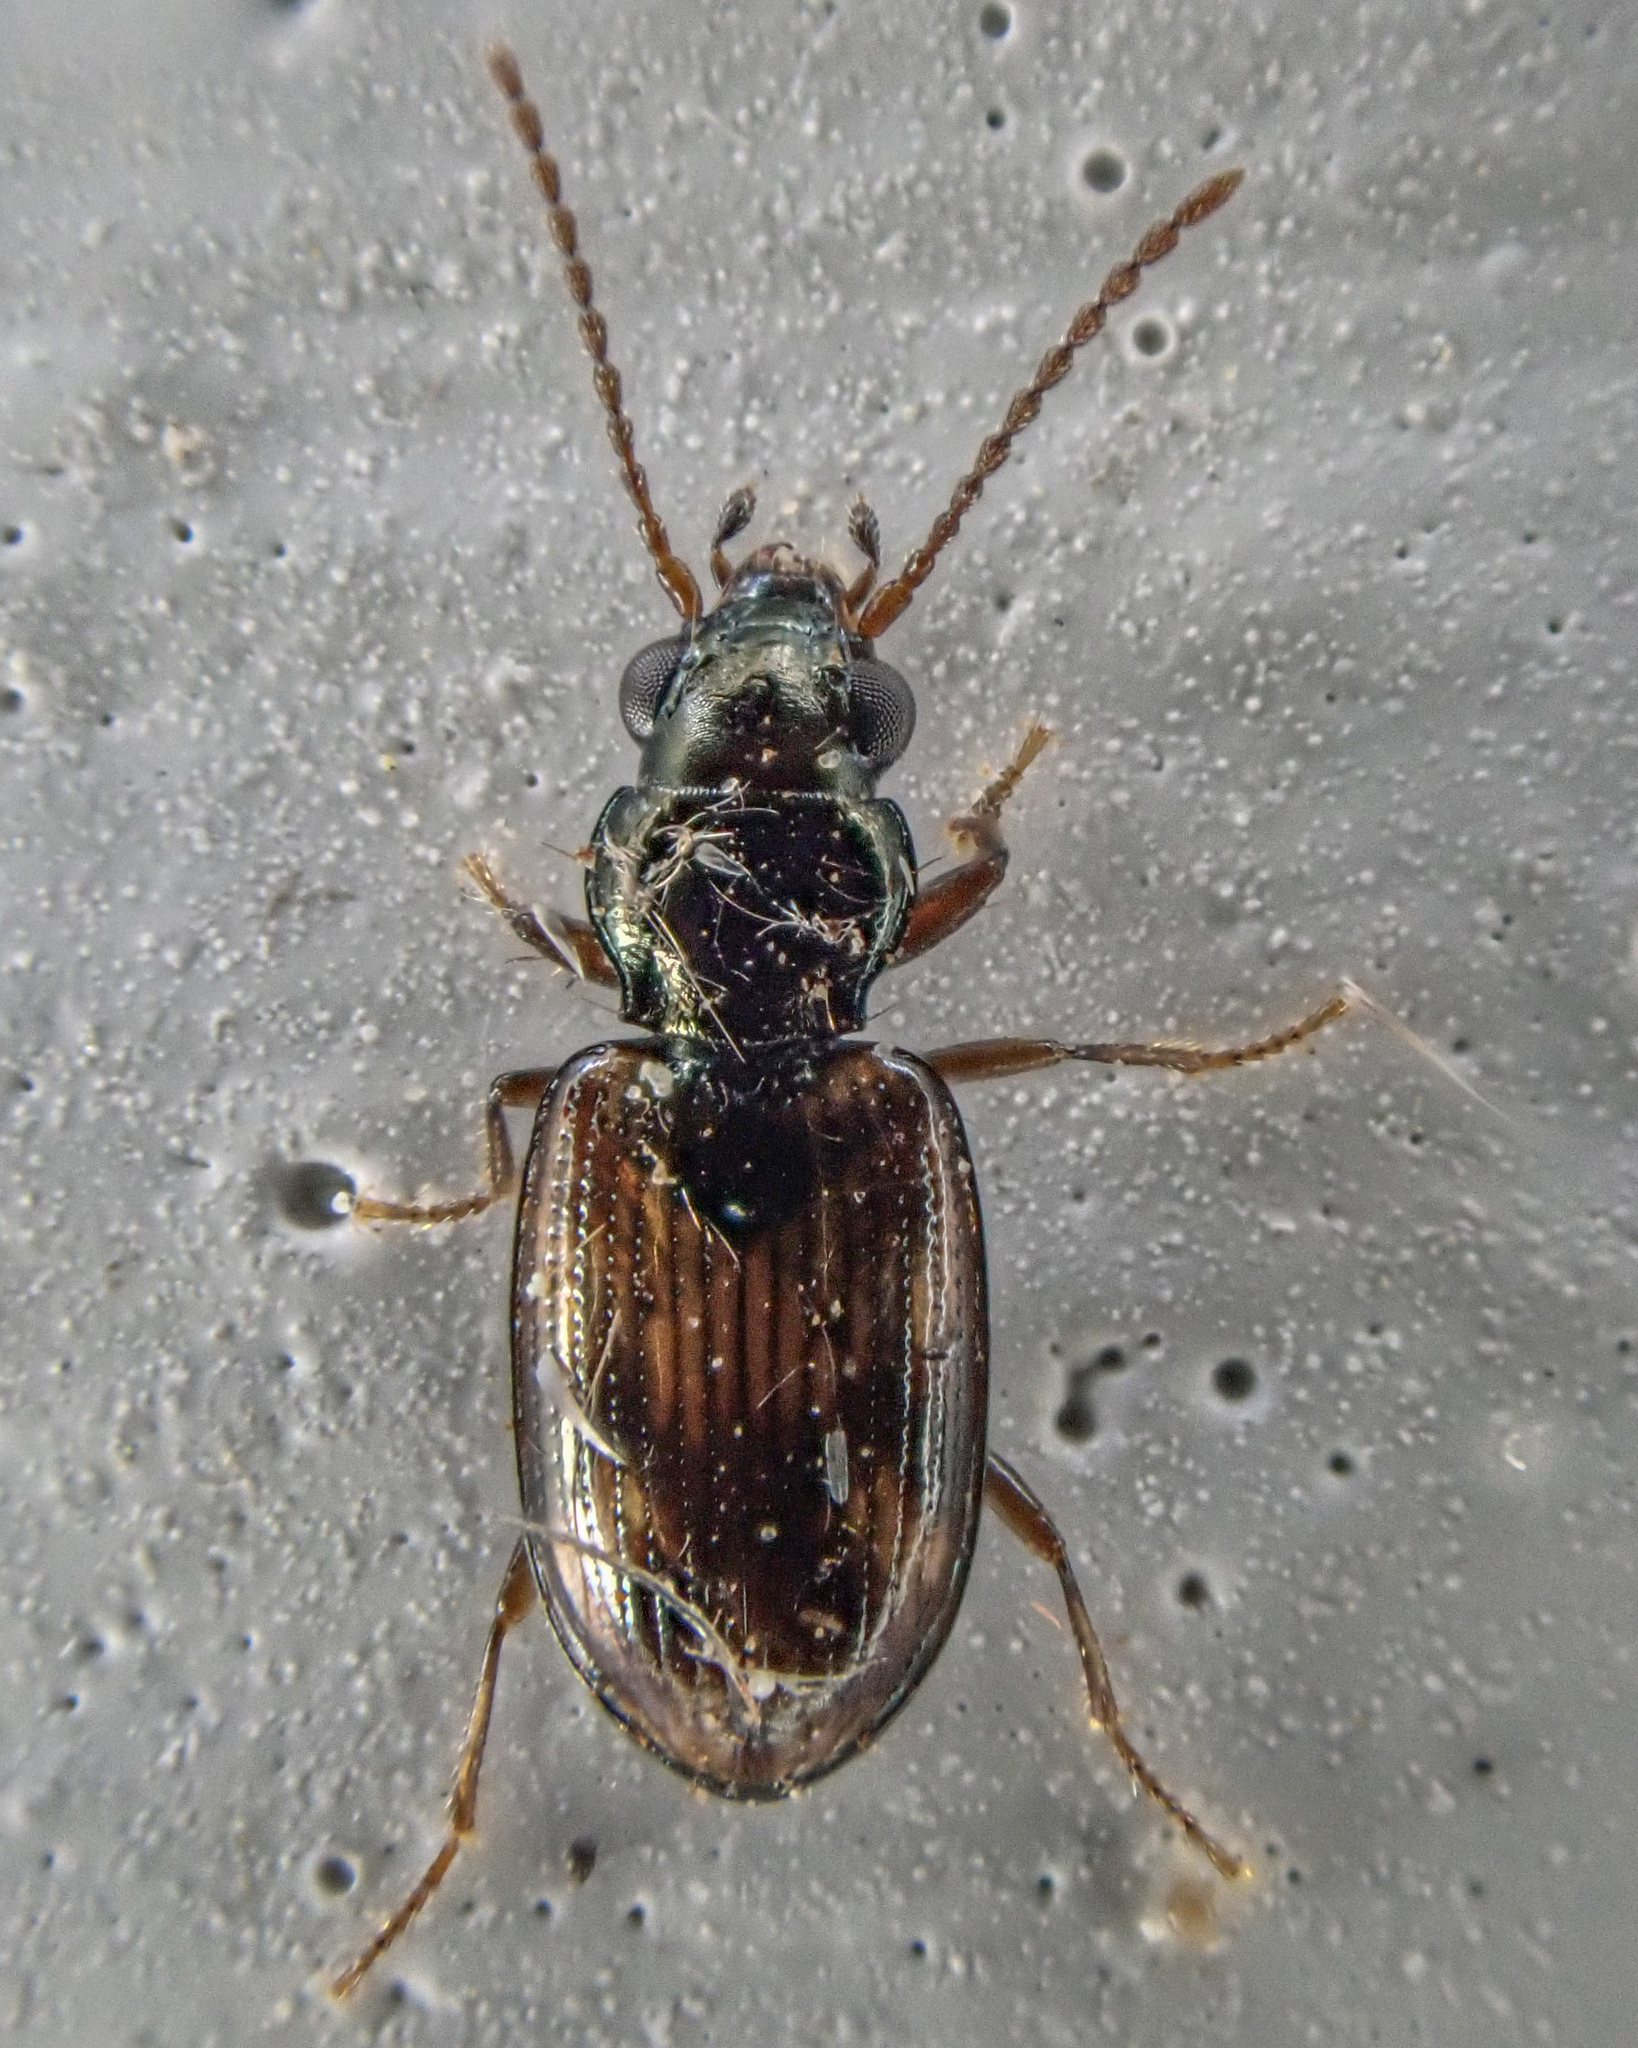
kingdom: Animalia
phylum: Arthropoda
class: Insecta
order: Coleoptera
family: Carabidae
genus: Bembidion
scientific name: Bembidion impotens
